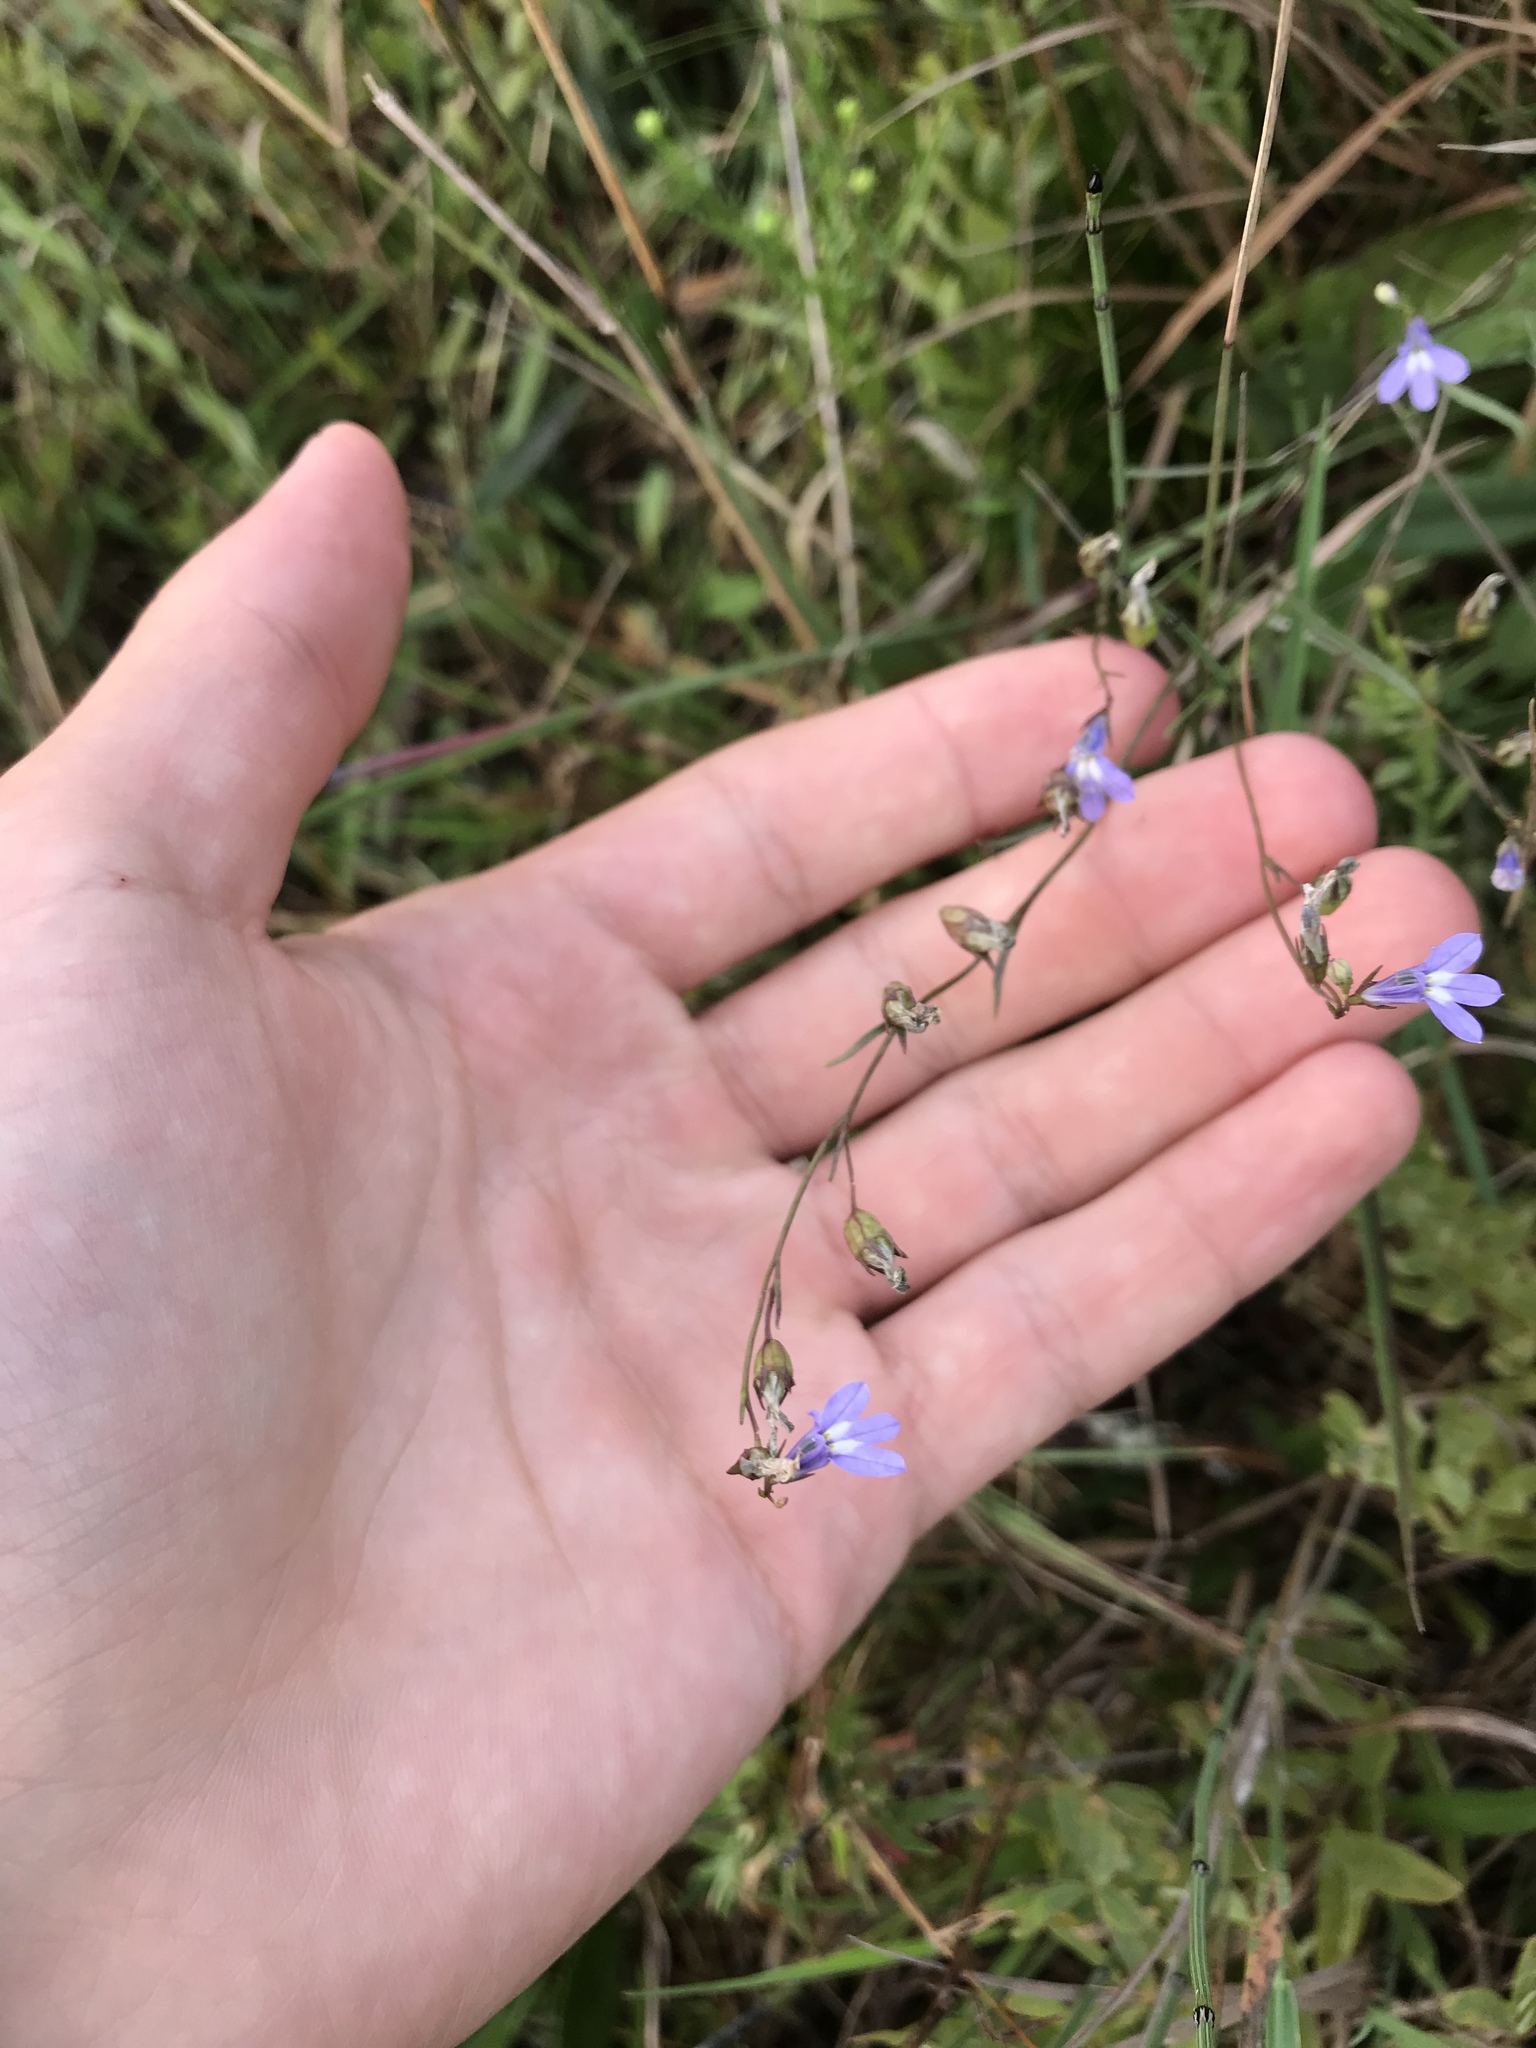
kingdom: Plantae
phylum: Tracheophyta
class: Magnoliopsida
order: Asterales
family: Campanulaceae
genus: Lobelia
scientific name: Lobelia kalmii
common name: Kalm's lobelia
